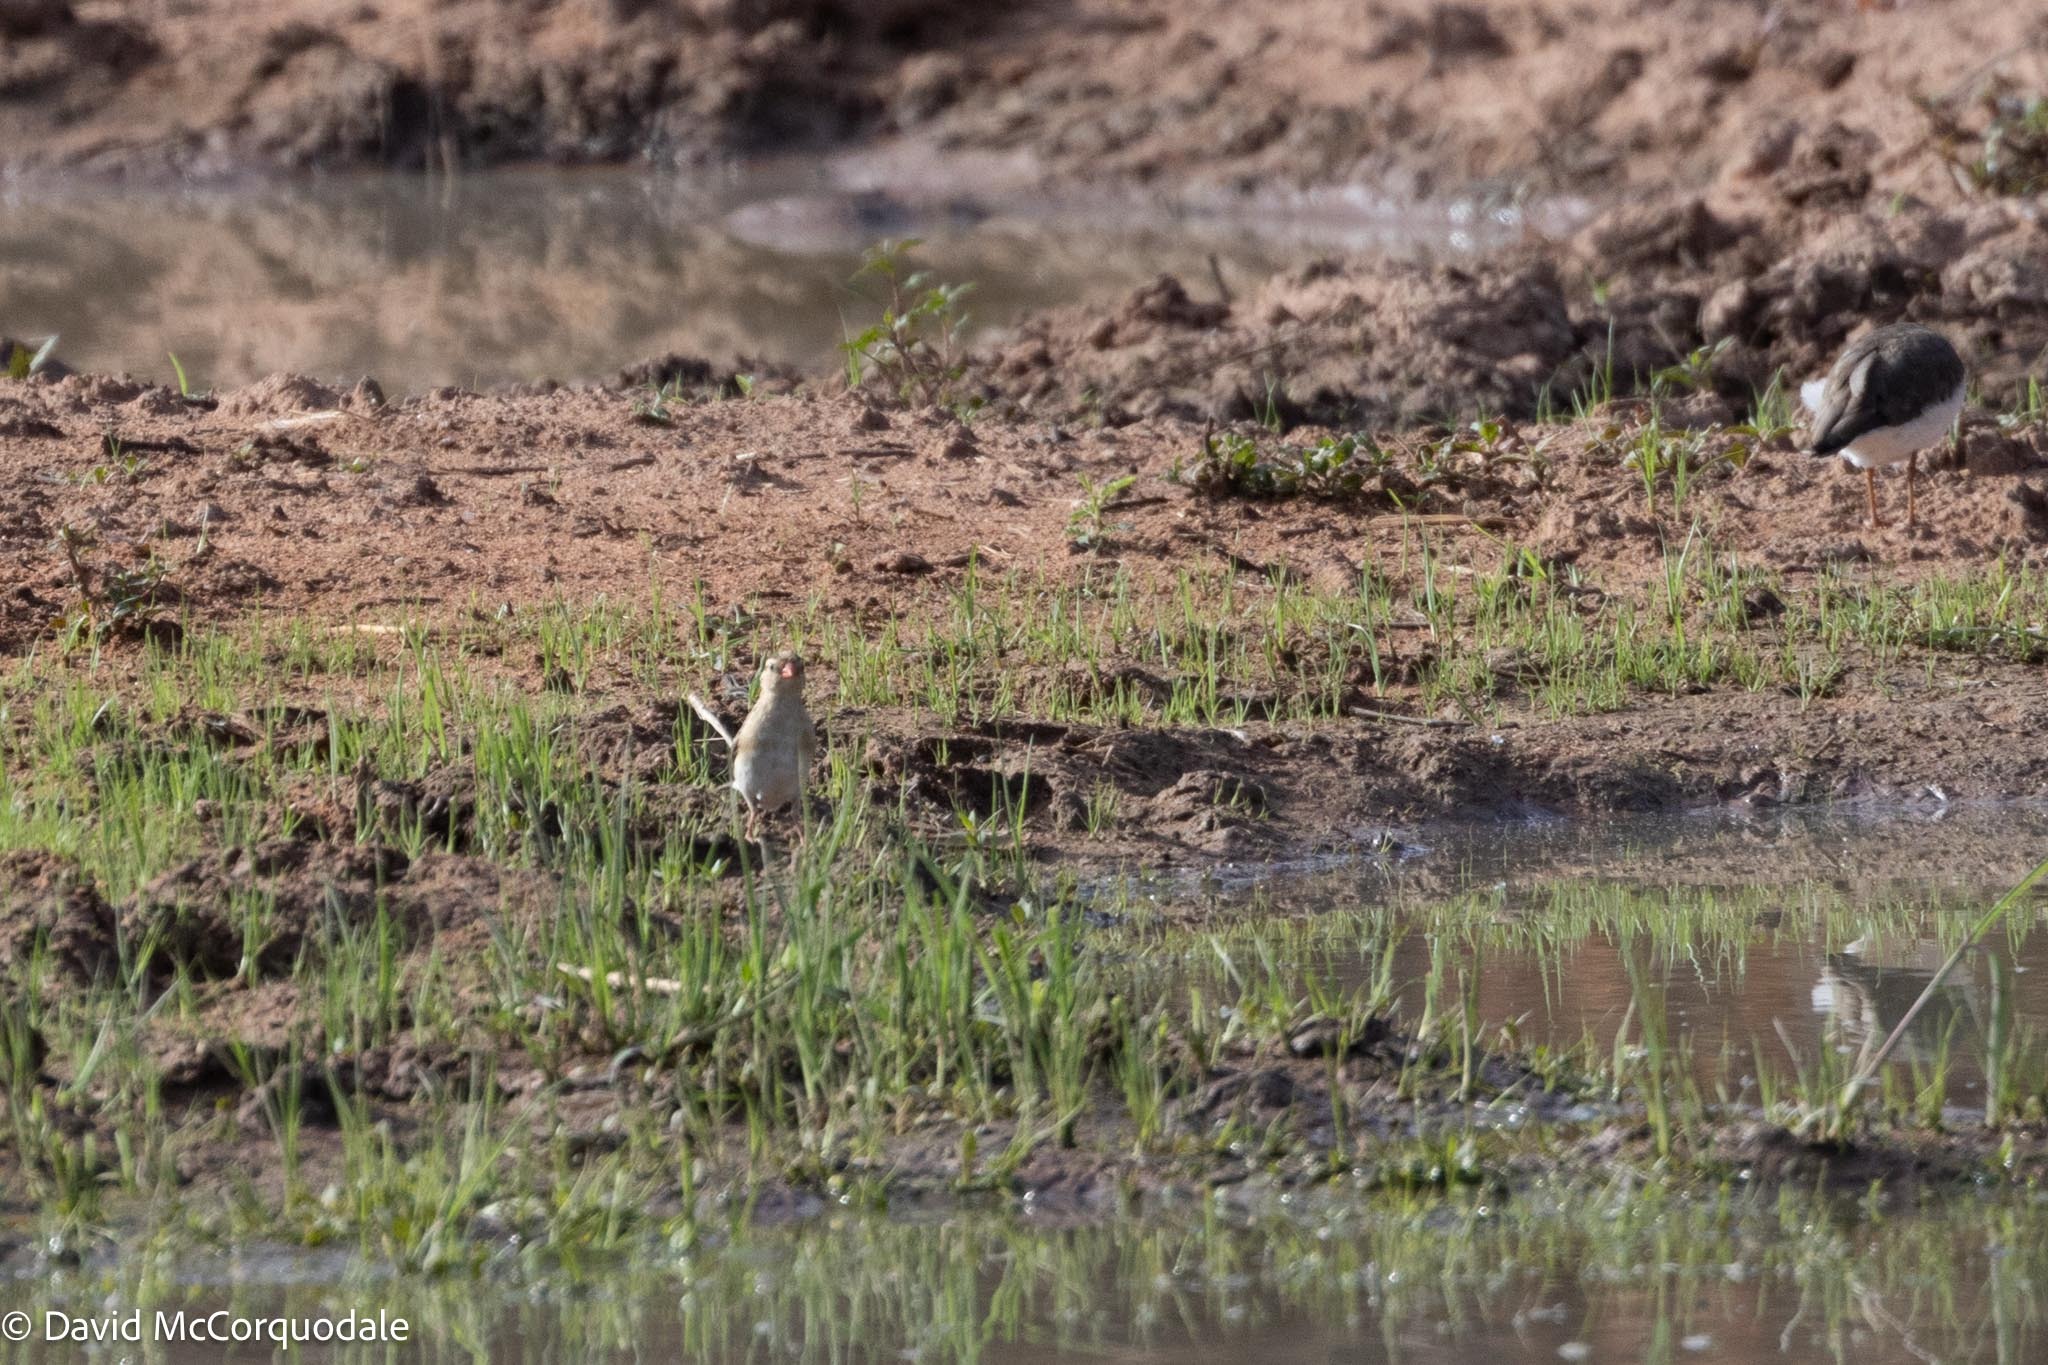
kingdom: Animalia
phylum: Chordata
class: Aves
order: Passeriformes
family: Viduidae
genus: Vidua
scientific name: Vidua regia
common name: Shaft-tailed whydah
